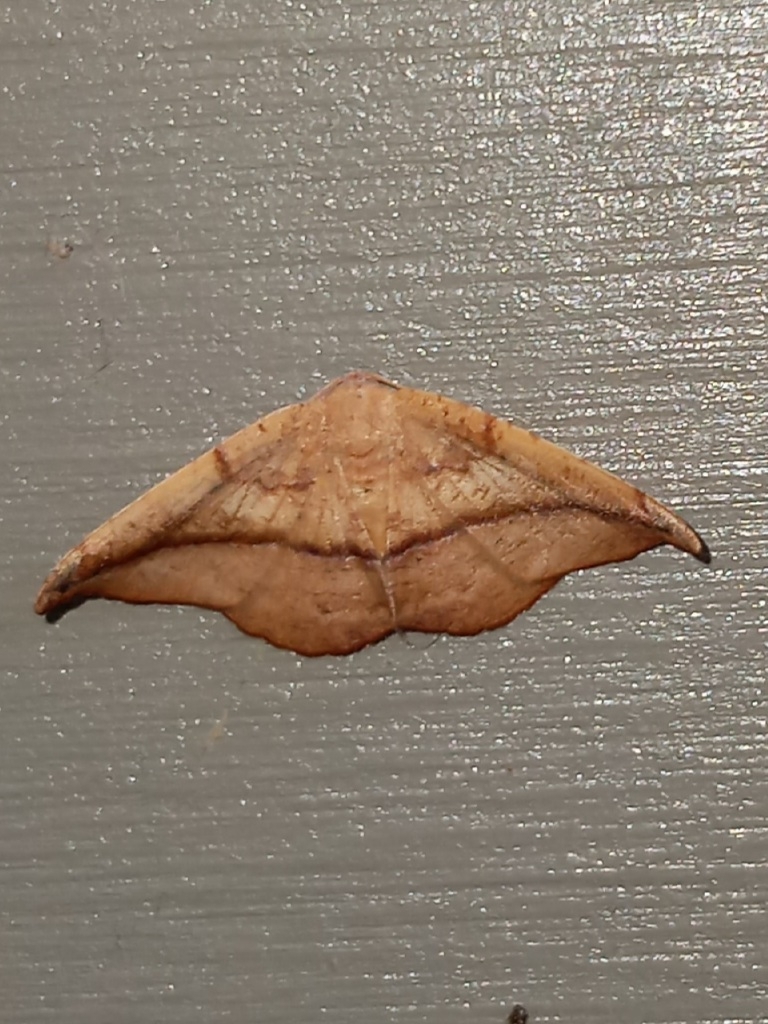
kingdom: Animalia
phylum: Arthropoda
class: Insecta
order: Lepidoptera
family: Geometridae
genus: Patalene
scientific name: Patalene olyzonaria
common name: Juniper geometer moth
